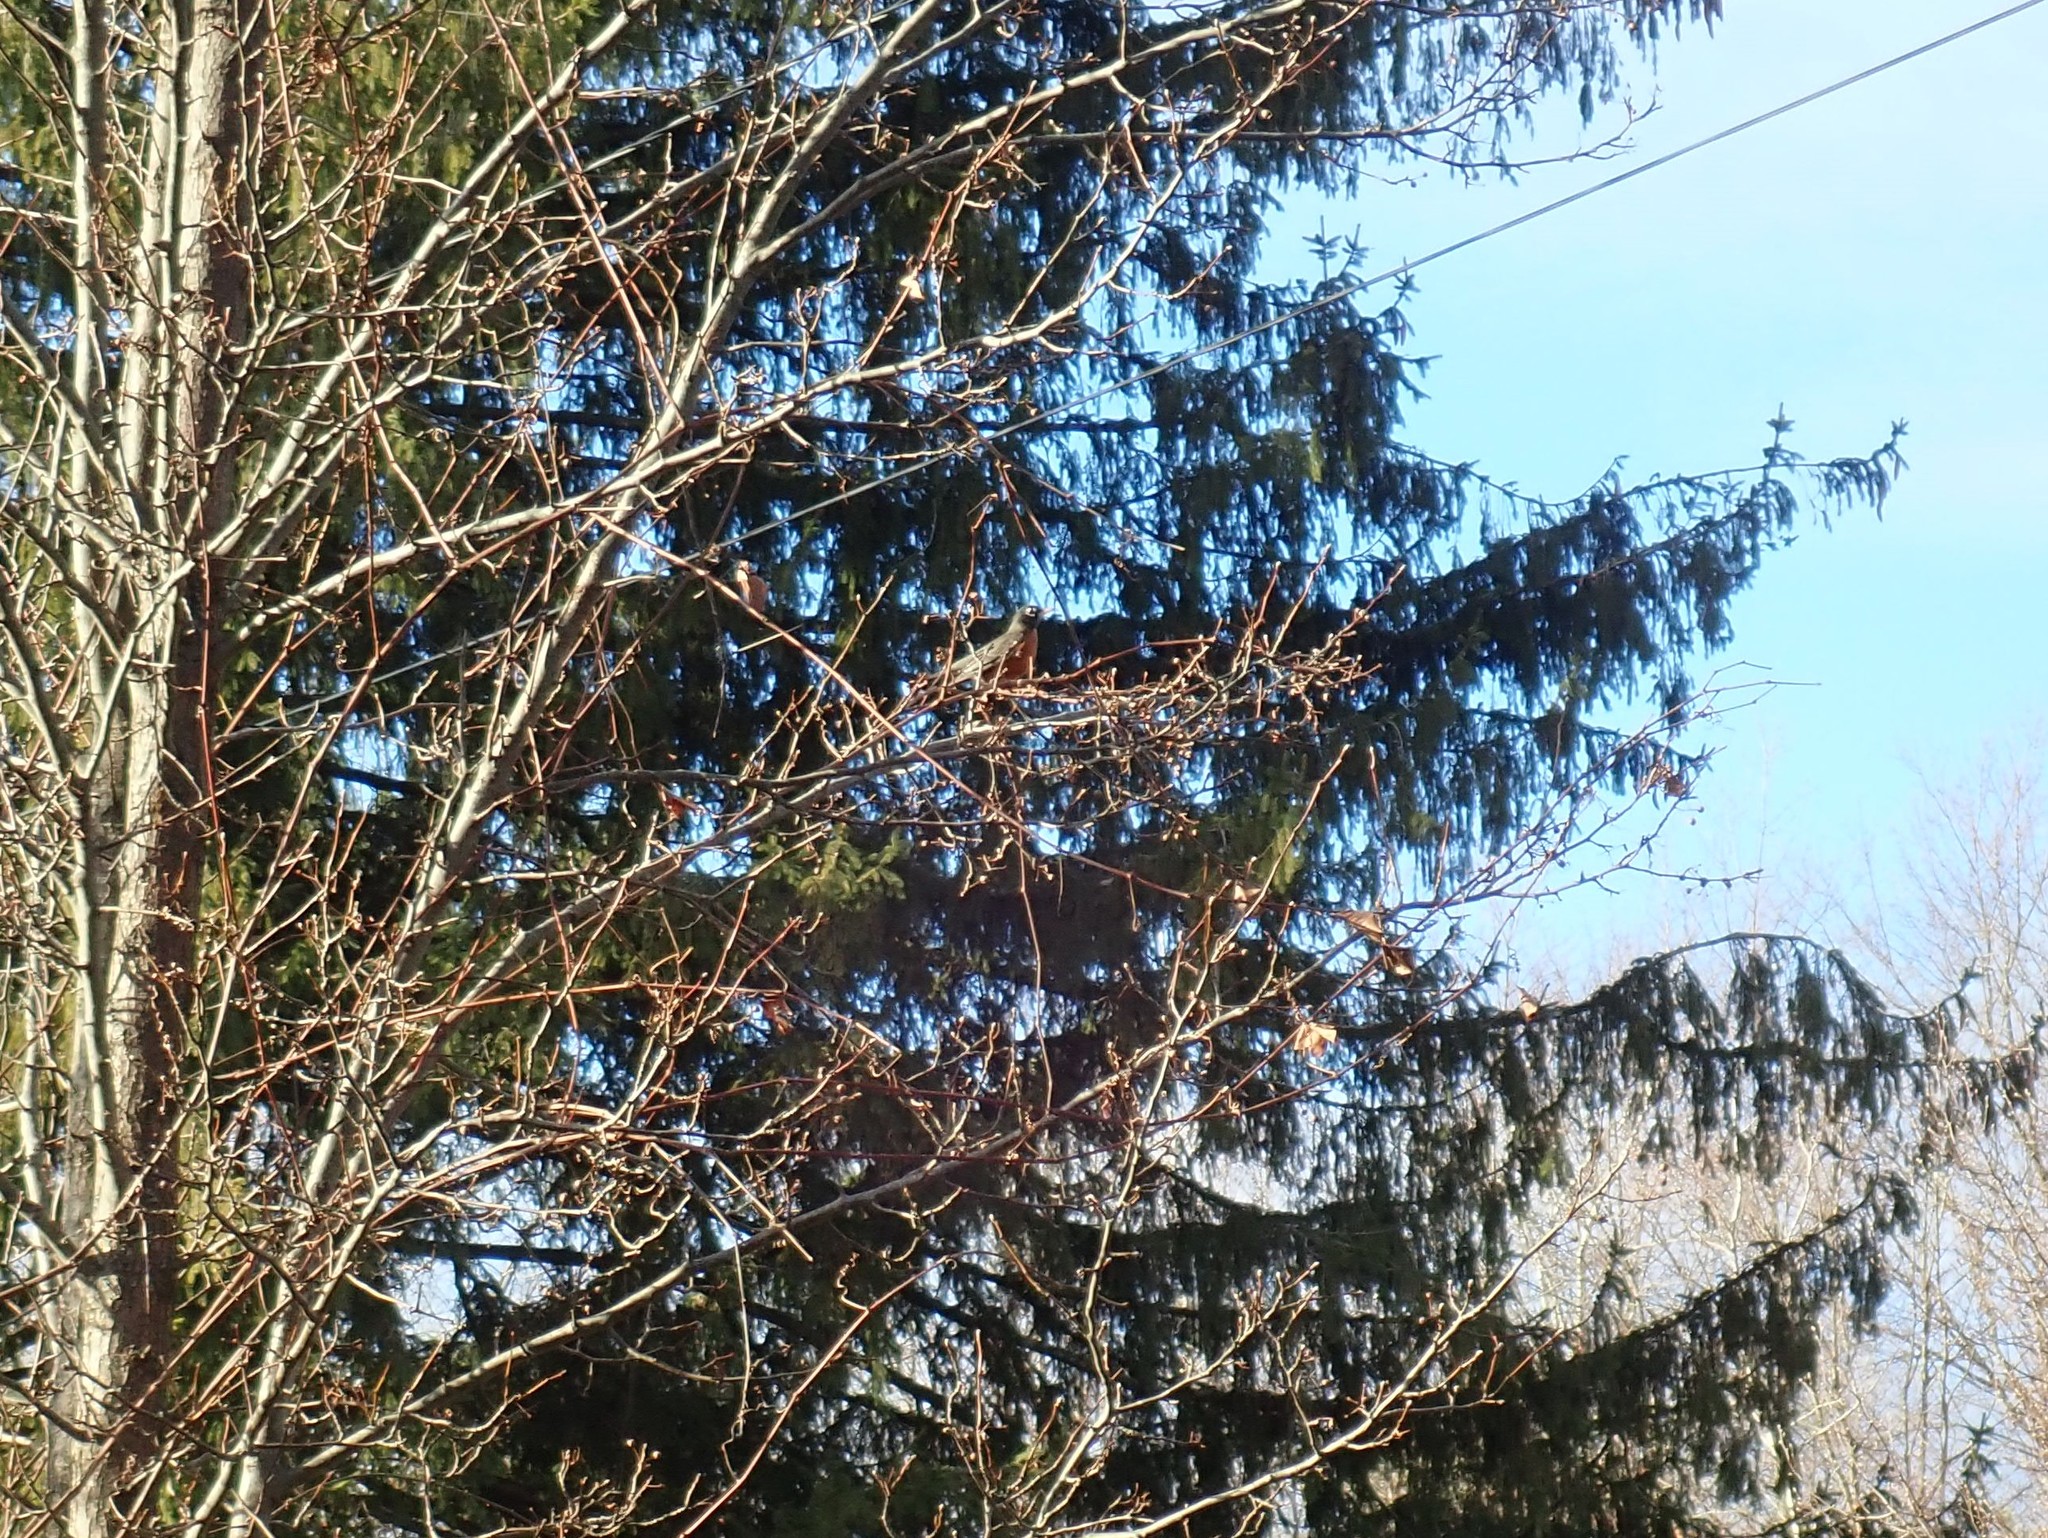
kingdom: Animalia
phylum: Chordata
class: Aves
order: Passeriformes
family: Turdidae
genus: Turdus
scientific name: Turdus migratorius
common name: American robin
